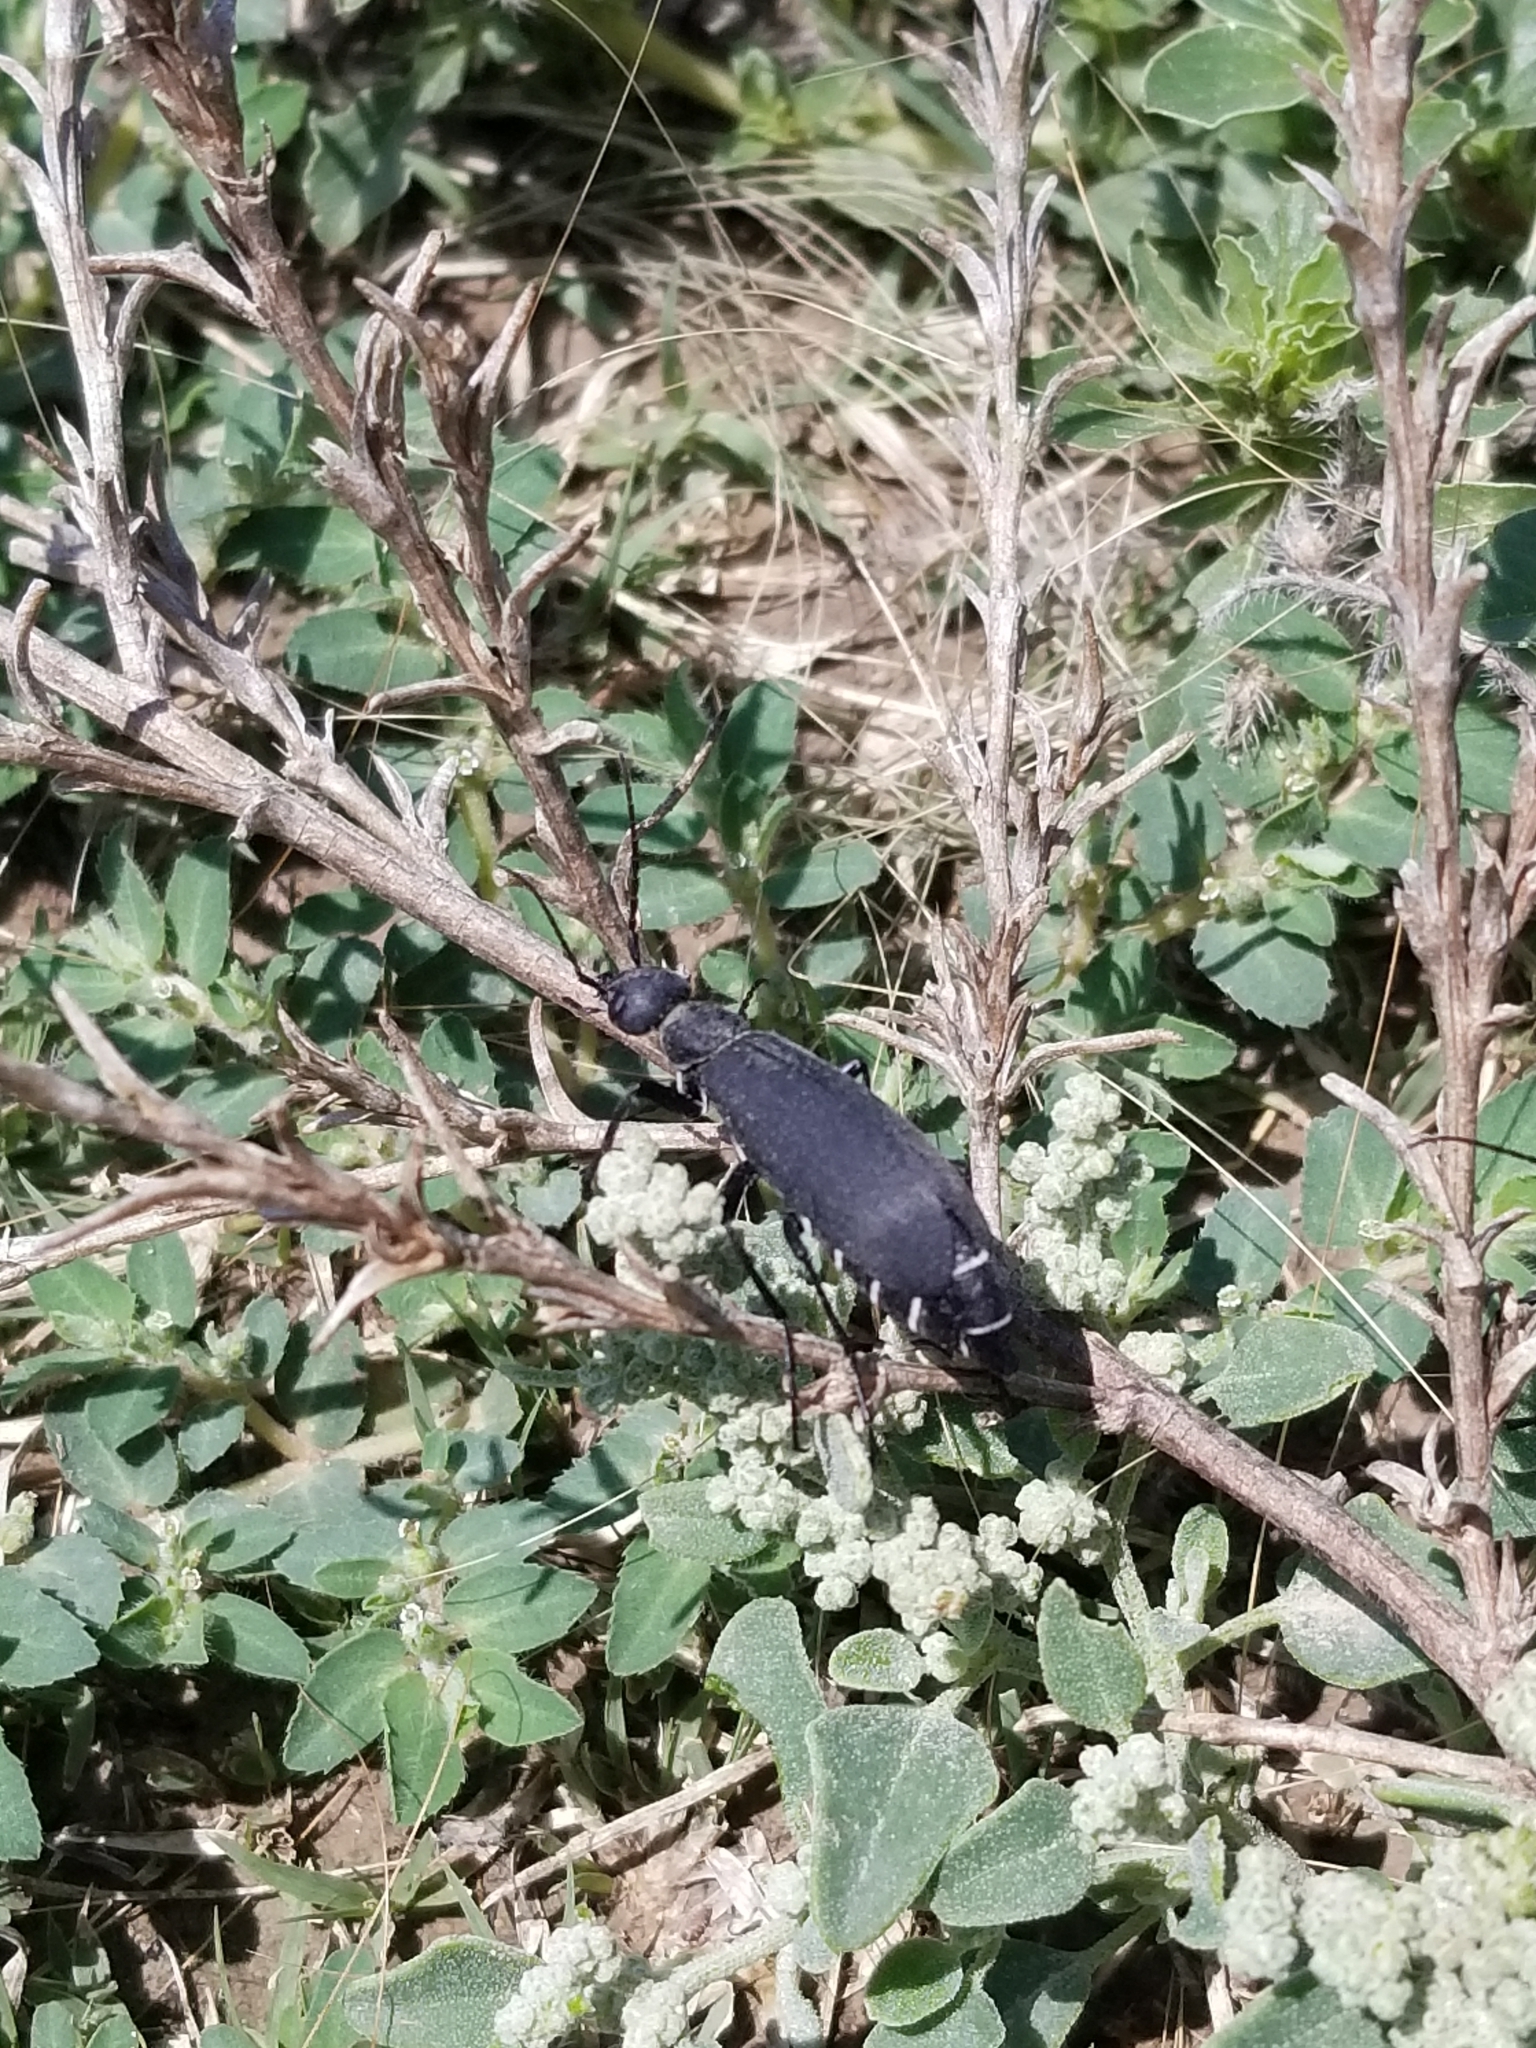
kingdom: Animalia
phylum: Arthropoda
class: Insecta
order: Coleoptera
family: Meloidae
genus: Epicauta
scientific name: Epicauta segmenta
